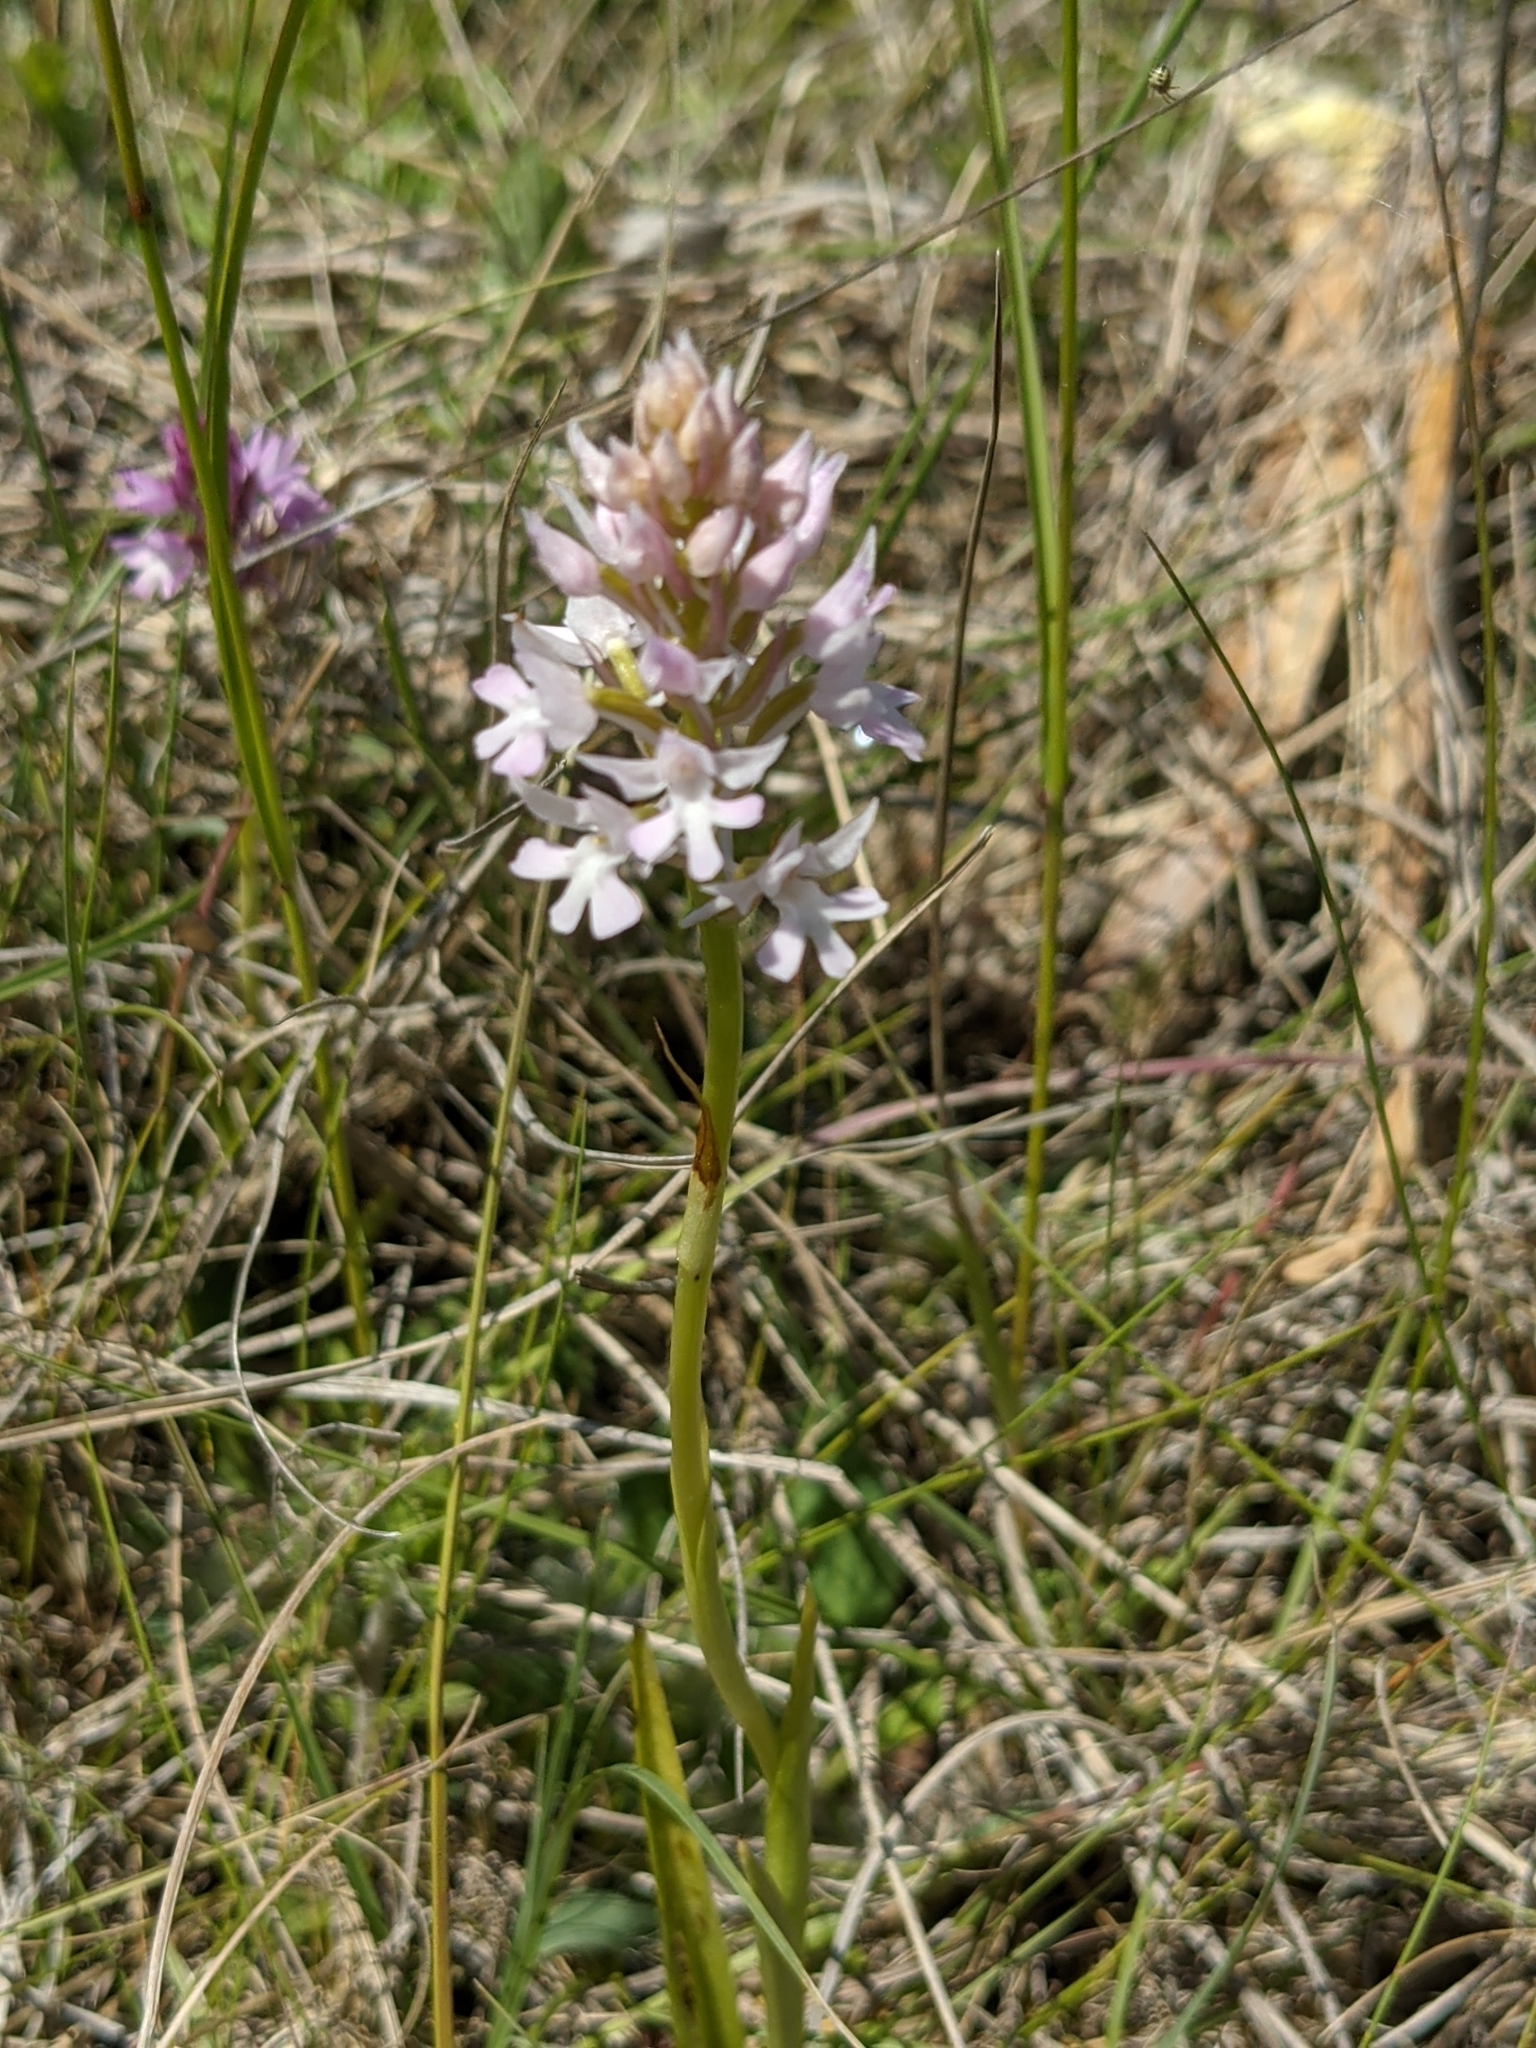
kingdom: Plantae
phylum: Tracheophyta
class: Liliopsida
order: Asparagales
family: Orchidaceae
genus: Anacamptis
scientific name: Anacamptis pyramidalis
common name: Pyramidal orchid
